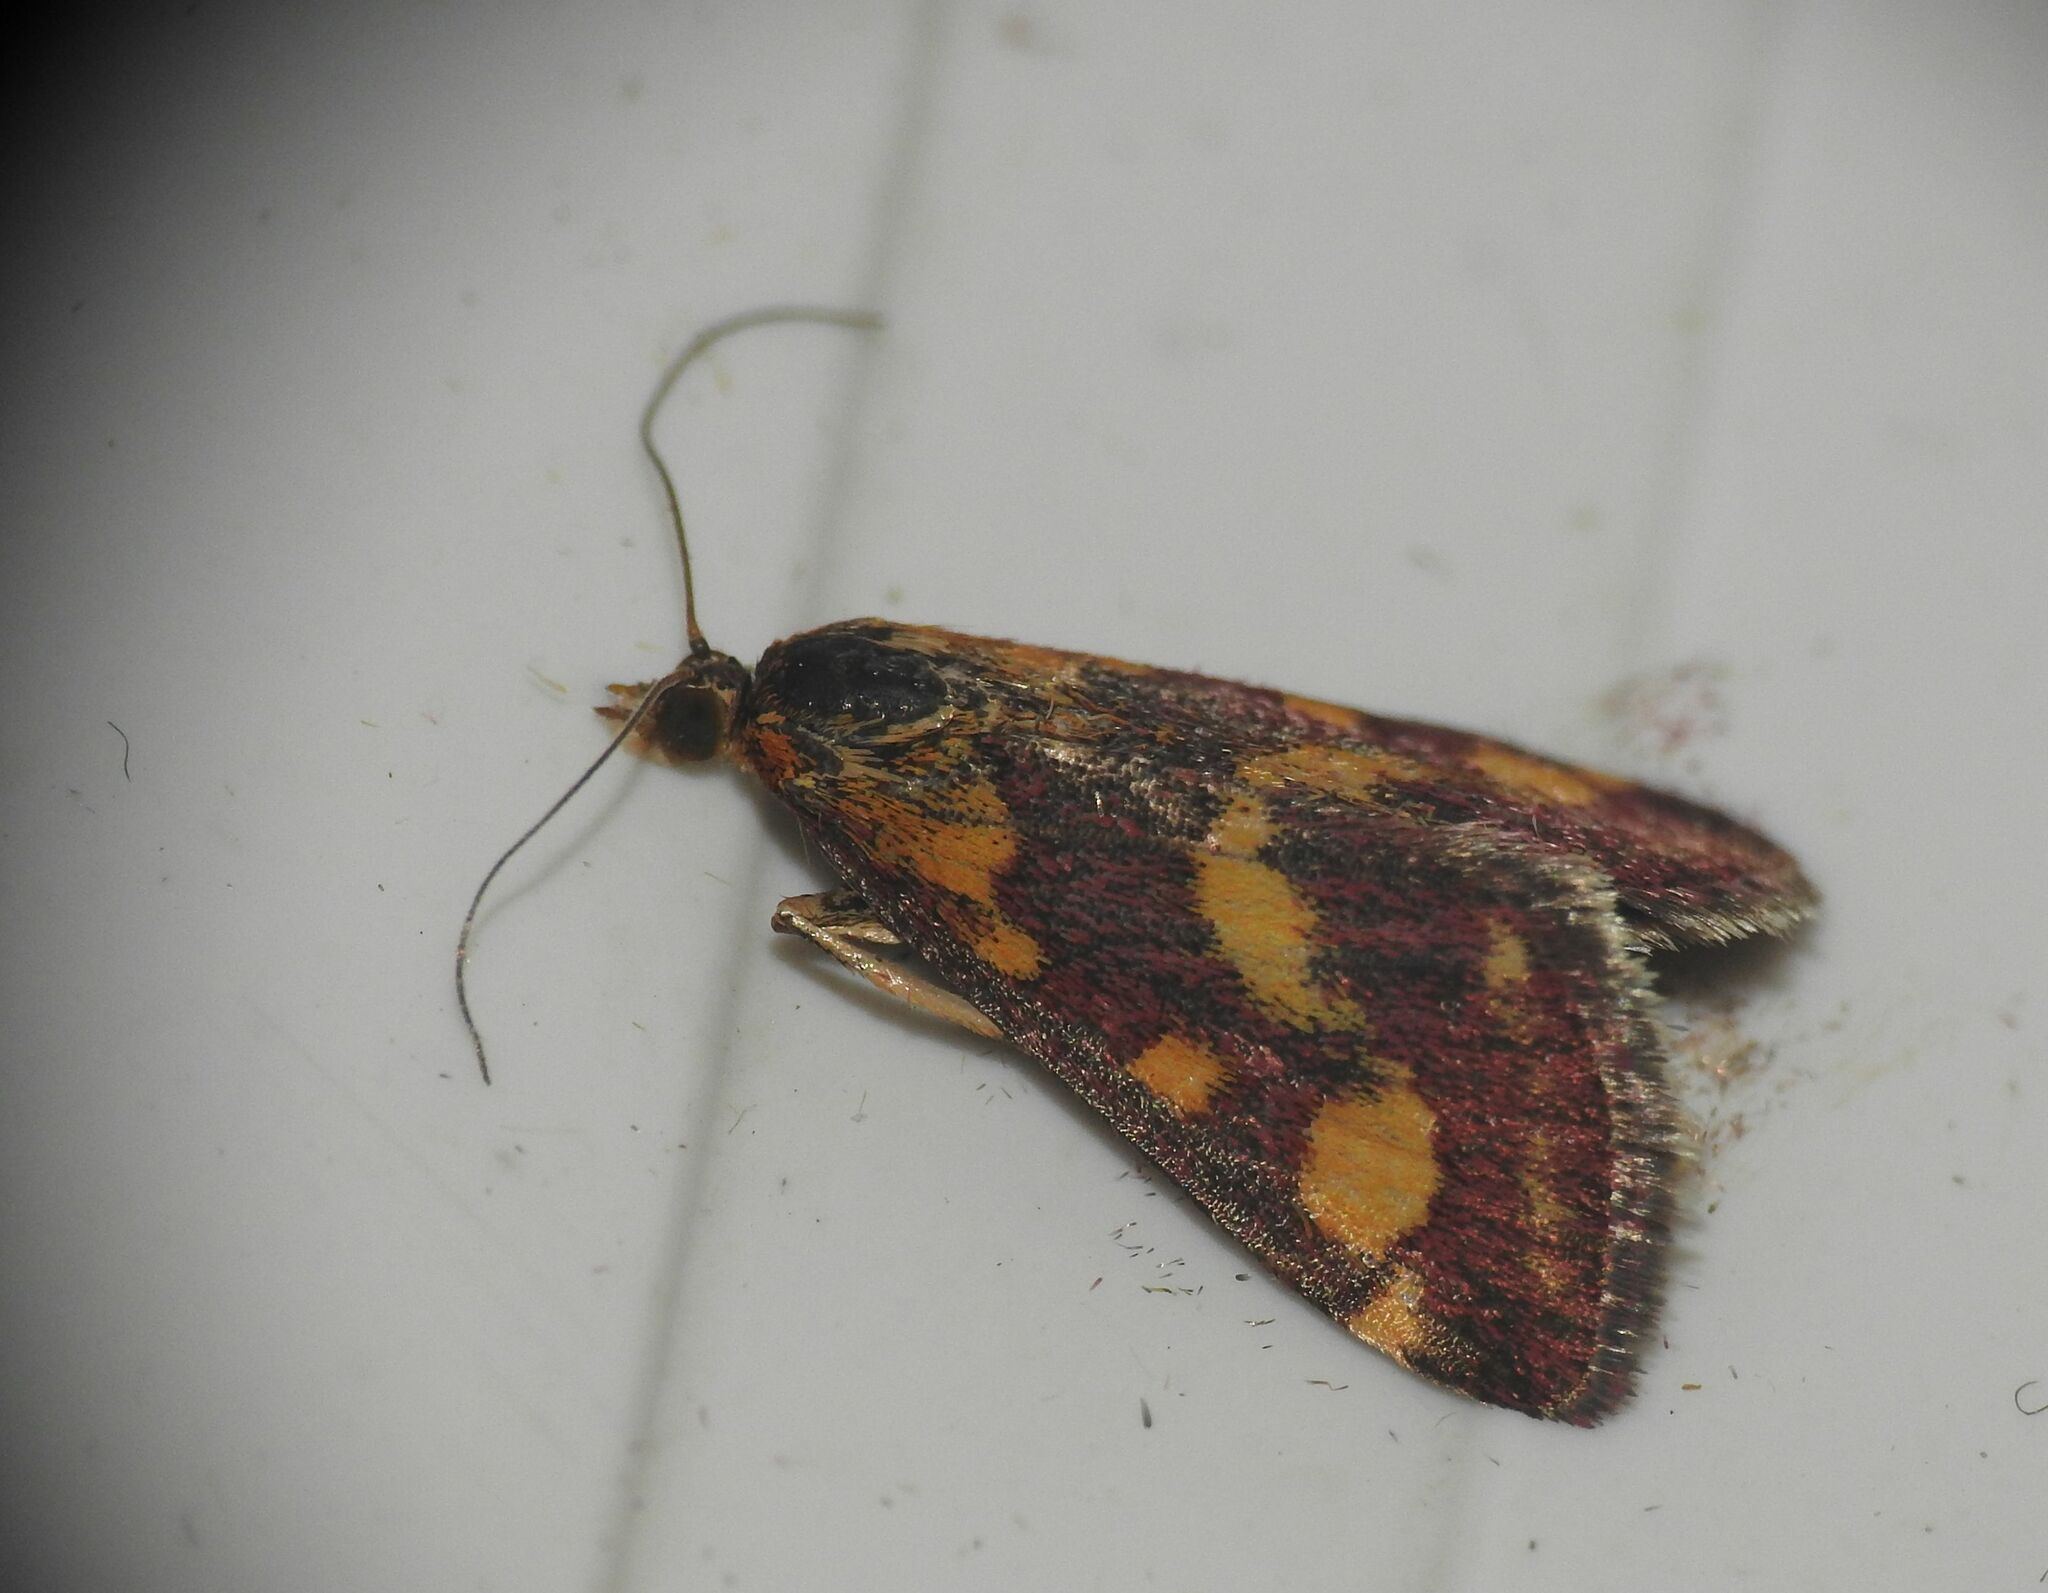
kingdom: Animalia
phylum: Arthropoda
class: Insecta
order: Lepidoptera
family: Crambidae
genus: Pyrausta
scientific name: Pyrausta purpuralis
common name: Common purple & gold
